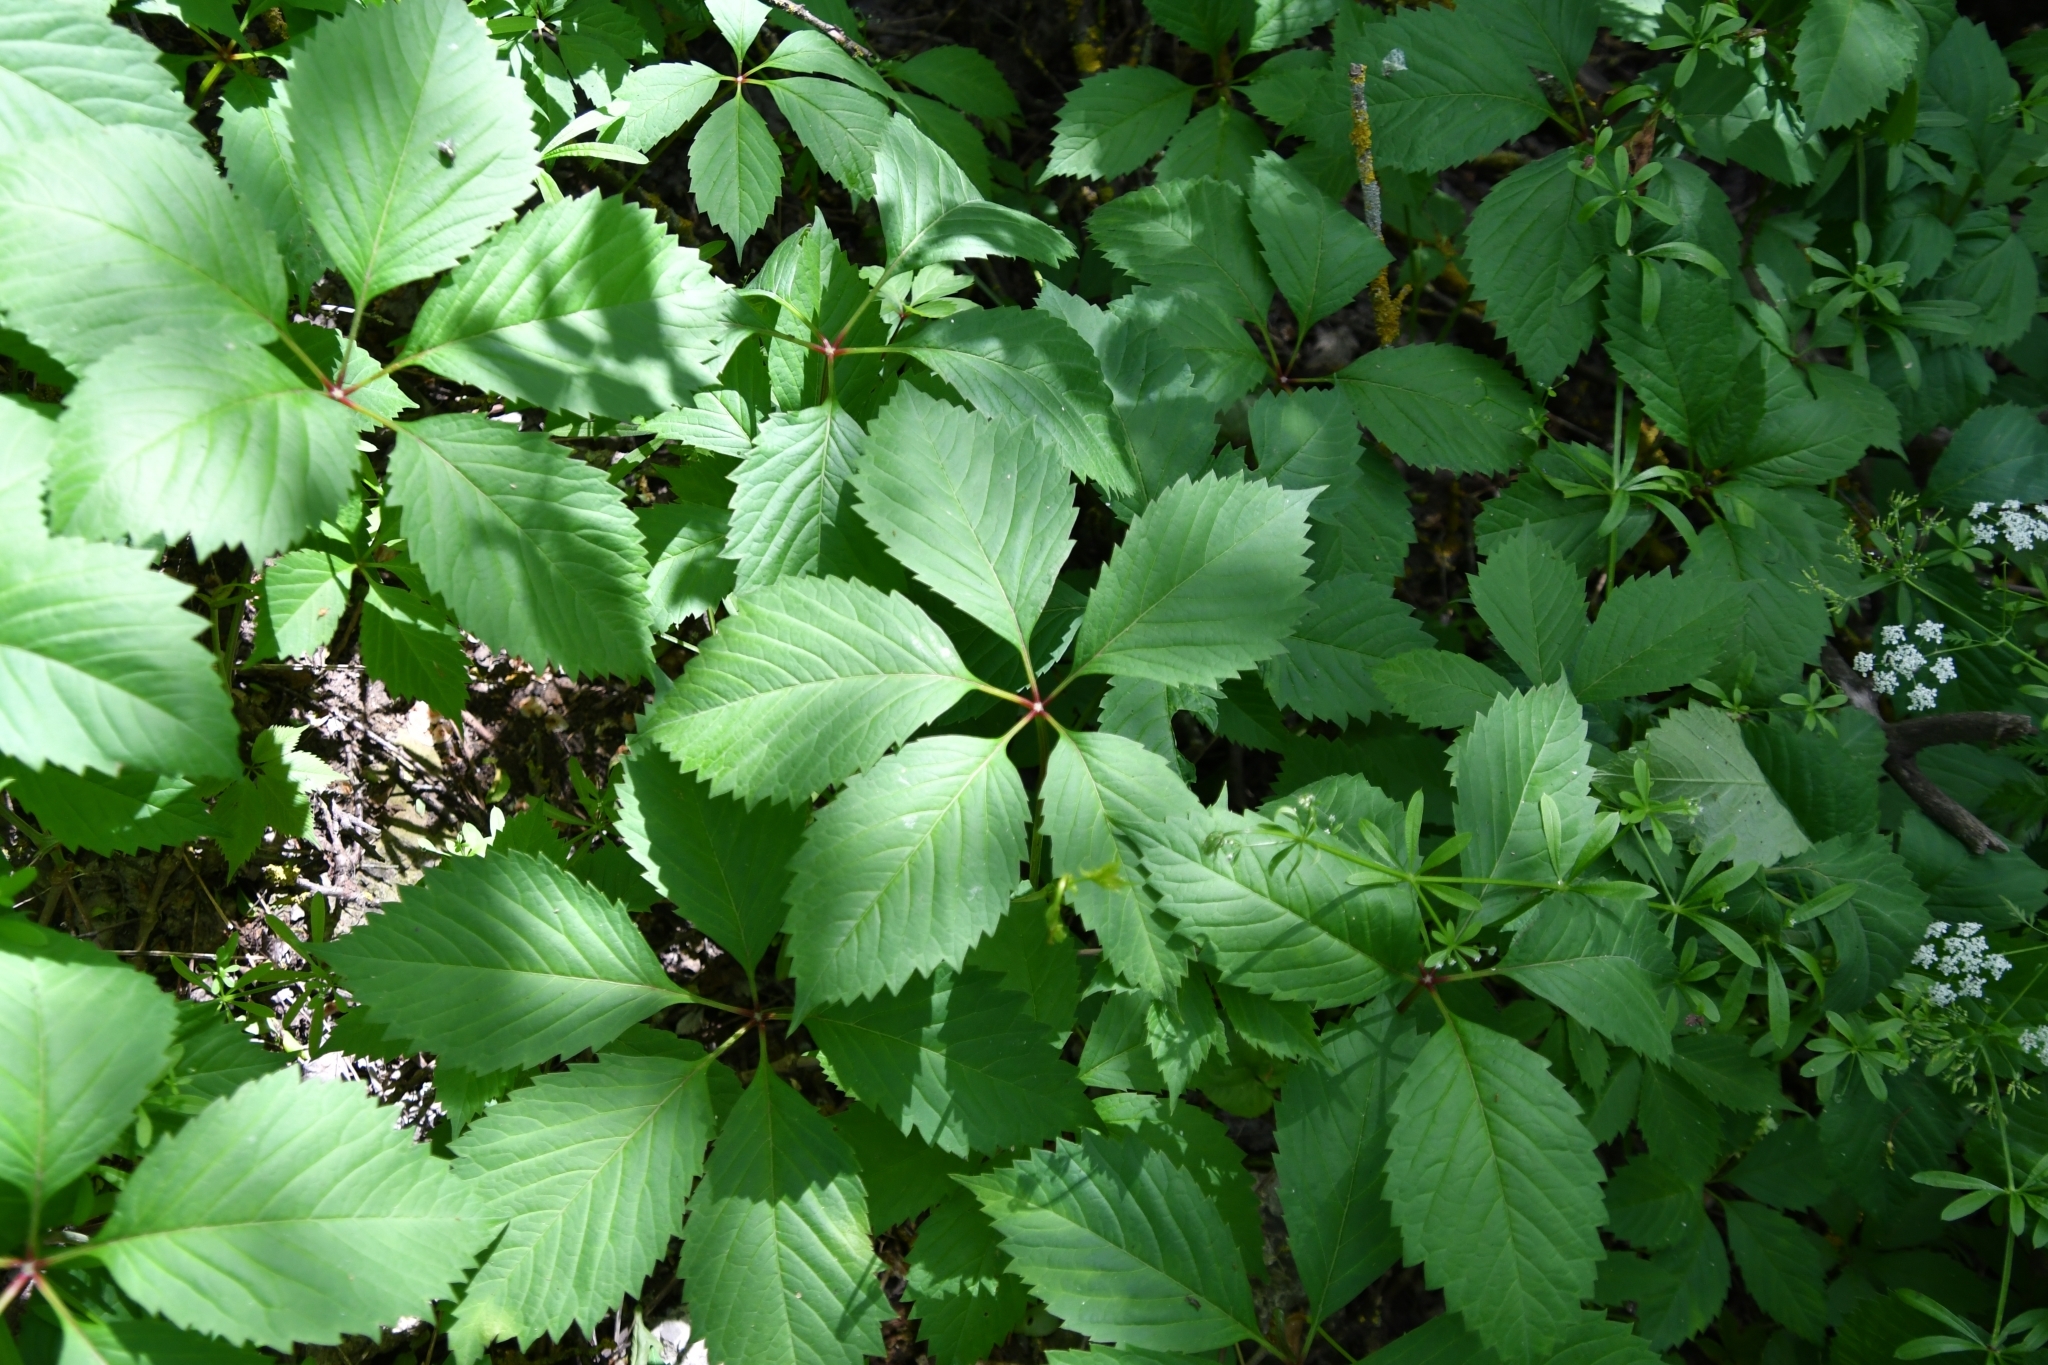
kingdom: Plantae
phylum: Tracheophyta
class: Magnoliopsida
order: Vitales
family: Vitaceae
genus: Parthenocissus
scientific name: Parthenocissus inserta
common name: False virginia-creeper
